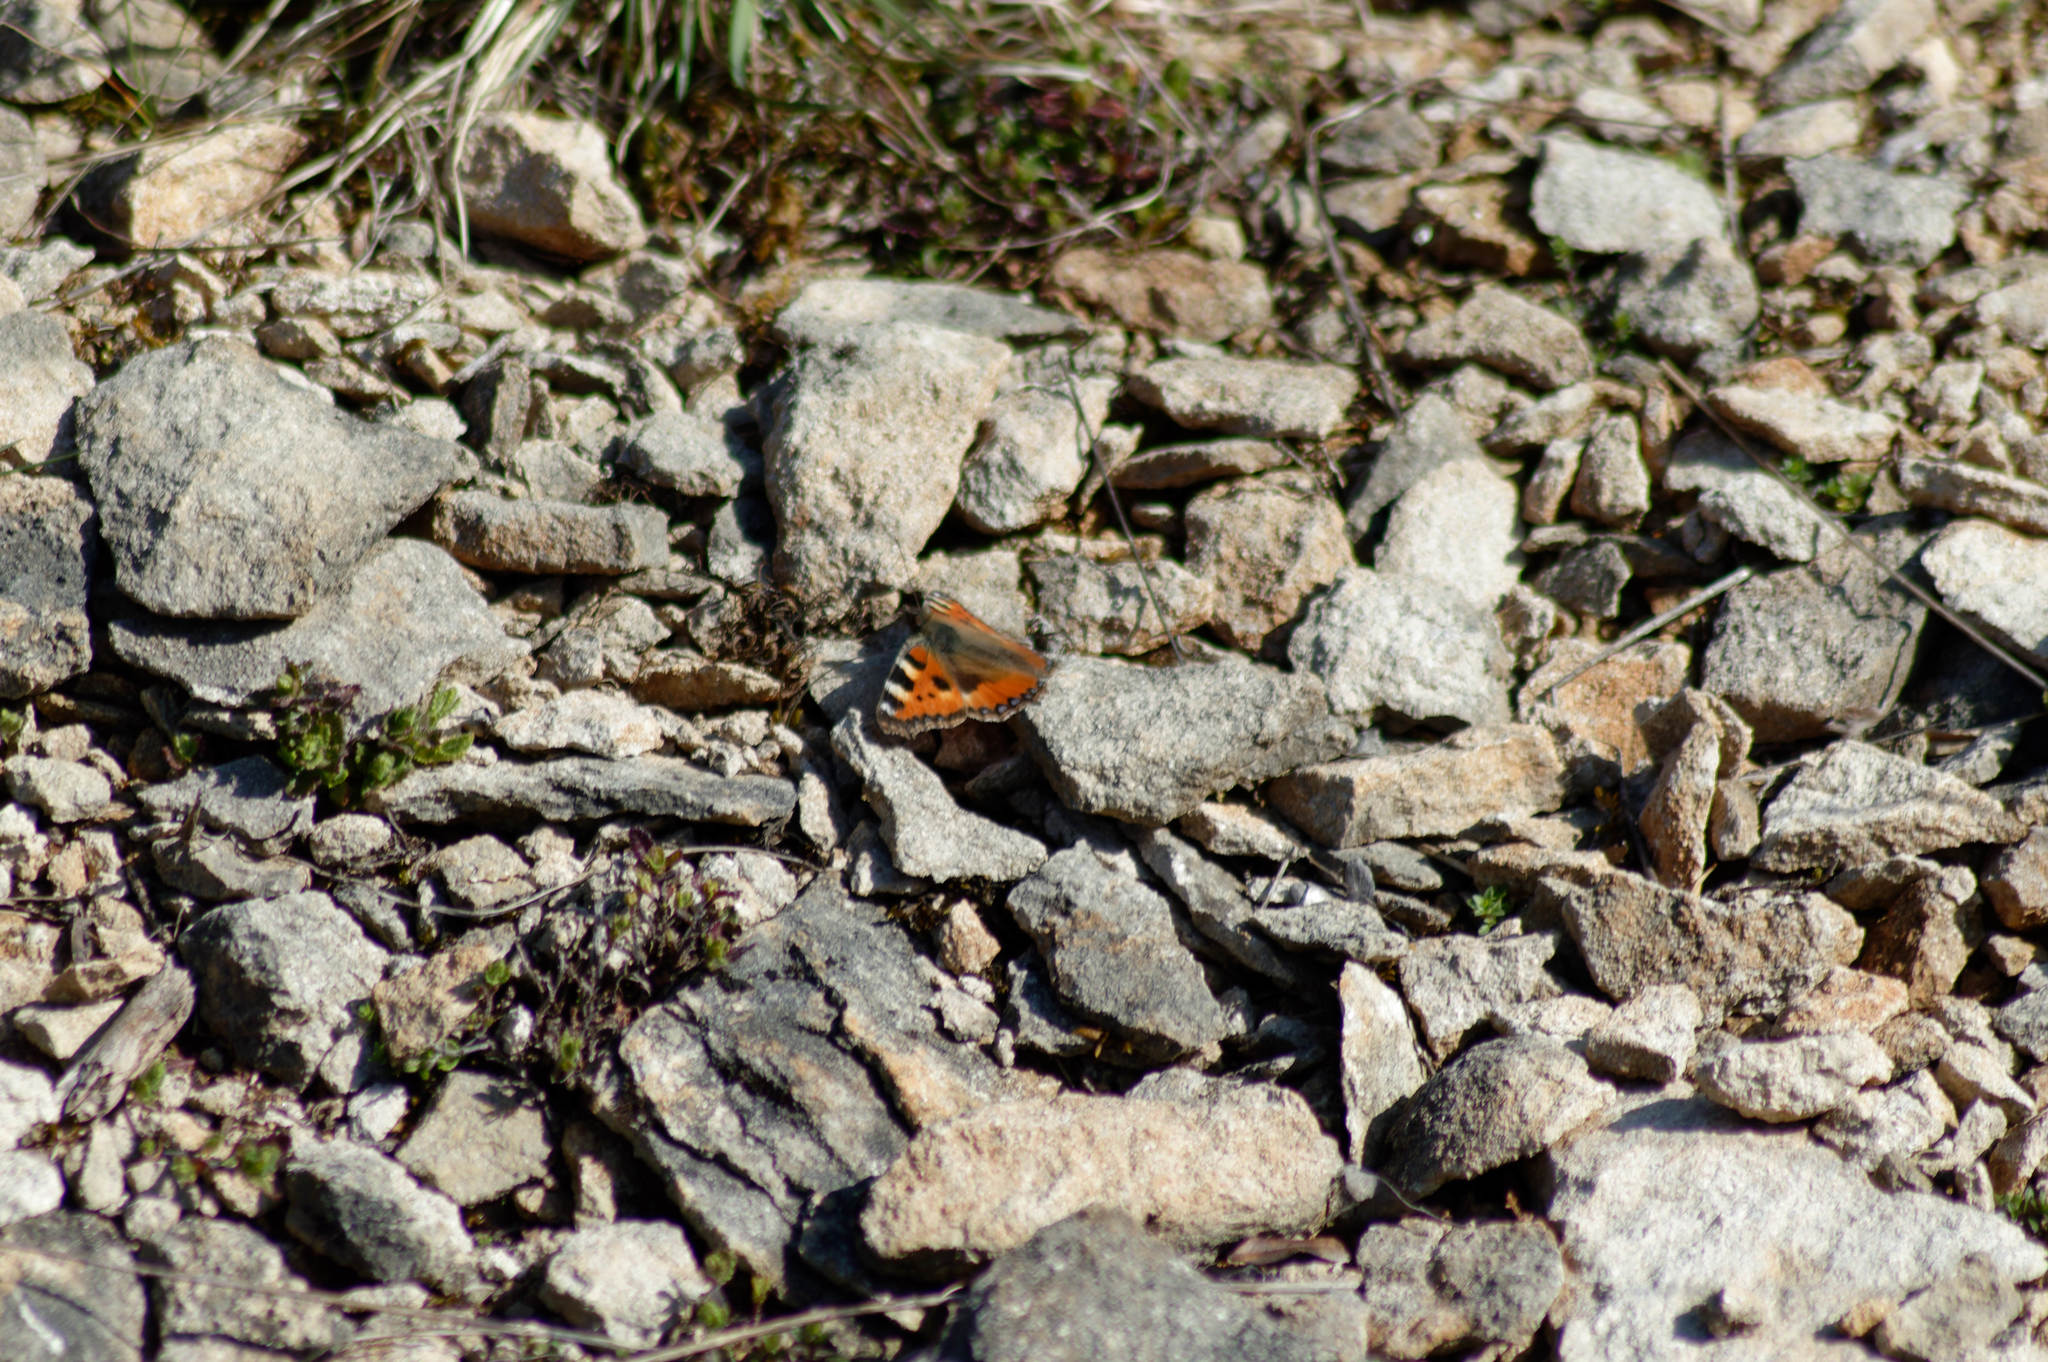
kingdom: Animalia
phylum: Arthropoda
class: Insecta
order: Lepidoptera
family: Nymphalidae
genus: Aglais
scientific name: Aglais urticae
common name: Small tortoiseshell
